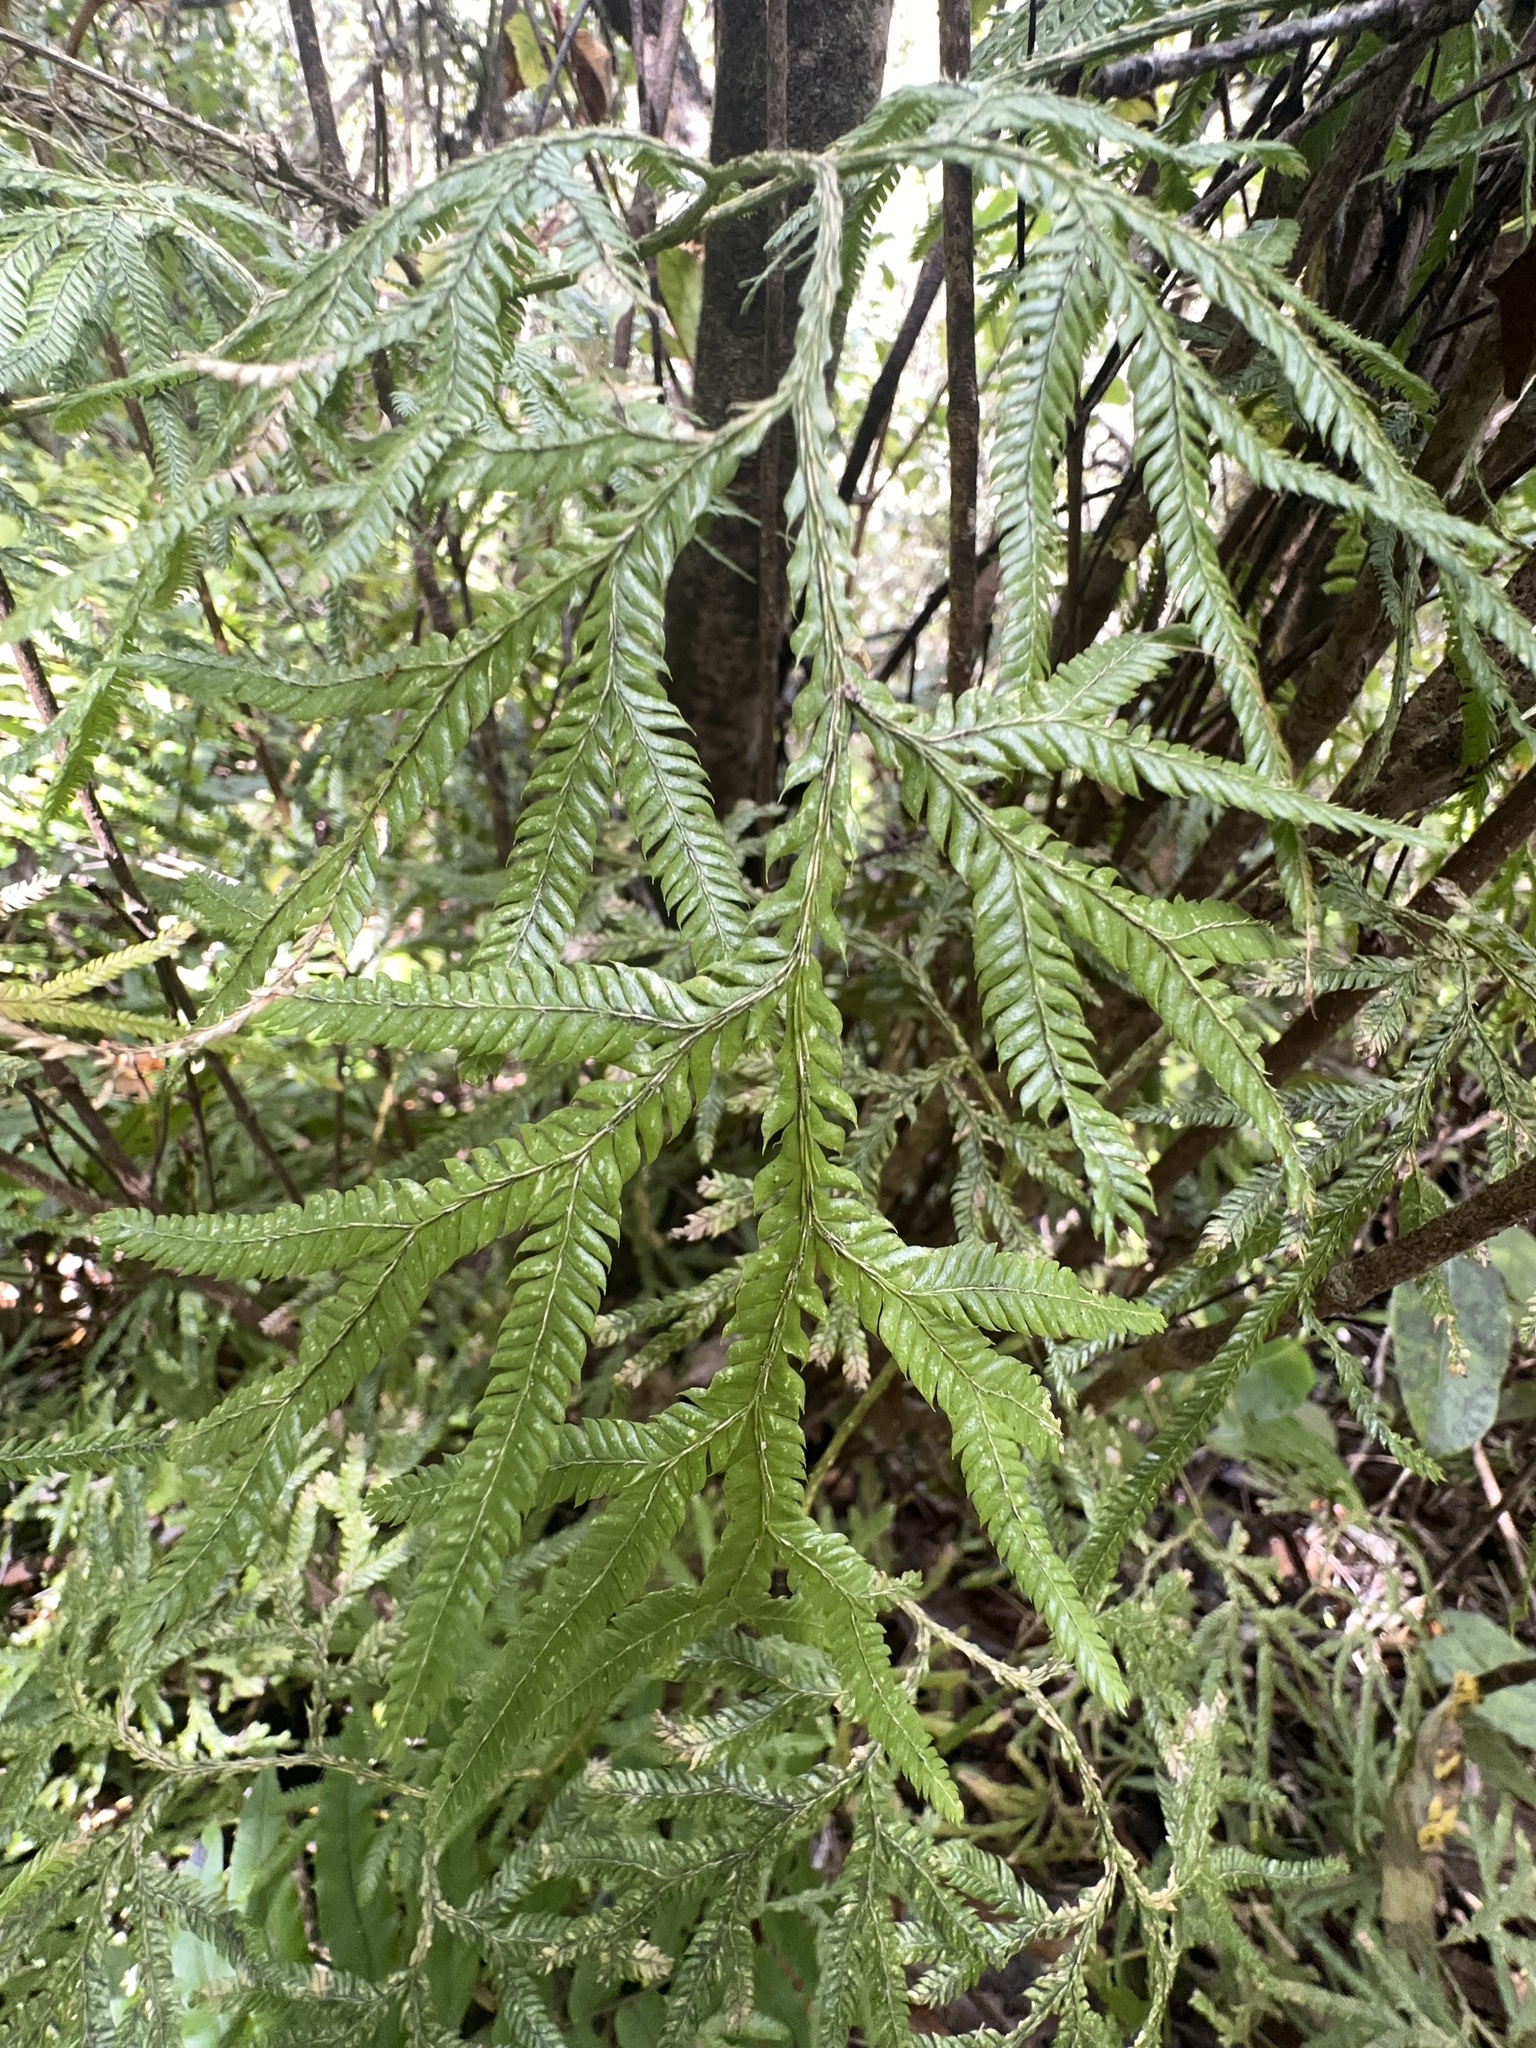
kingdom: Plantae
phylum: Tracheophyta
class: Lycopodiopsida
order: Lycopodiales
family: Lycopodiaceae
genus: Lycopodium
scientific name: Lycopodium volubile
